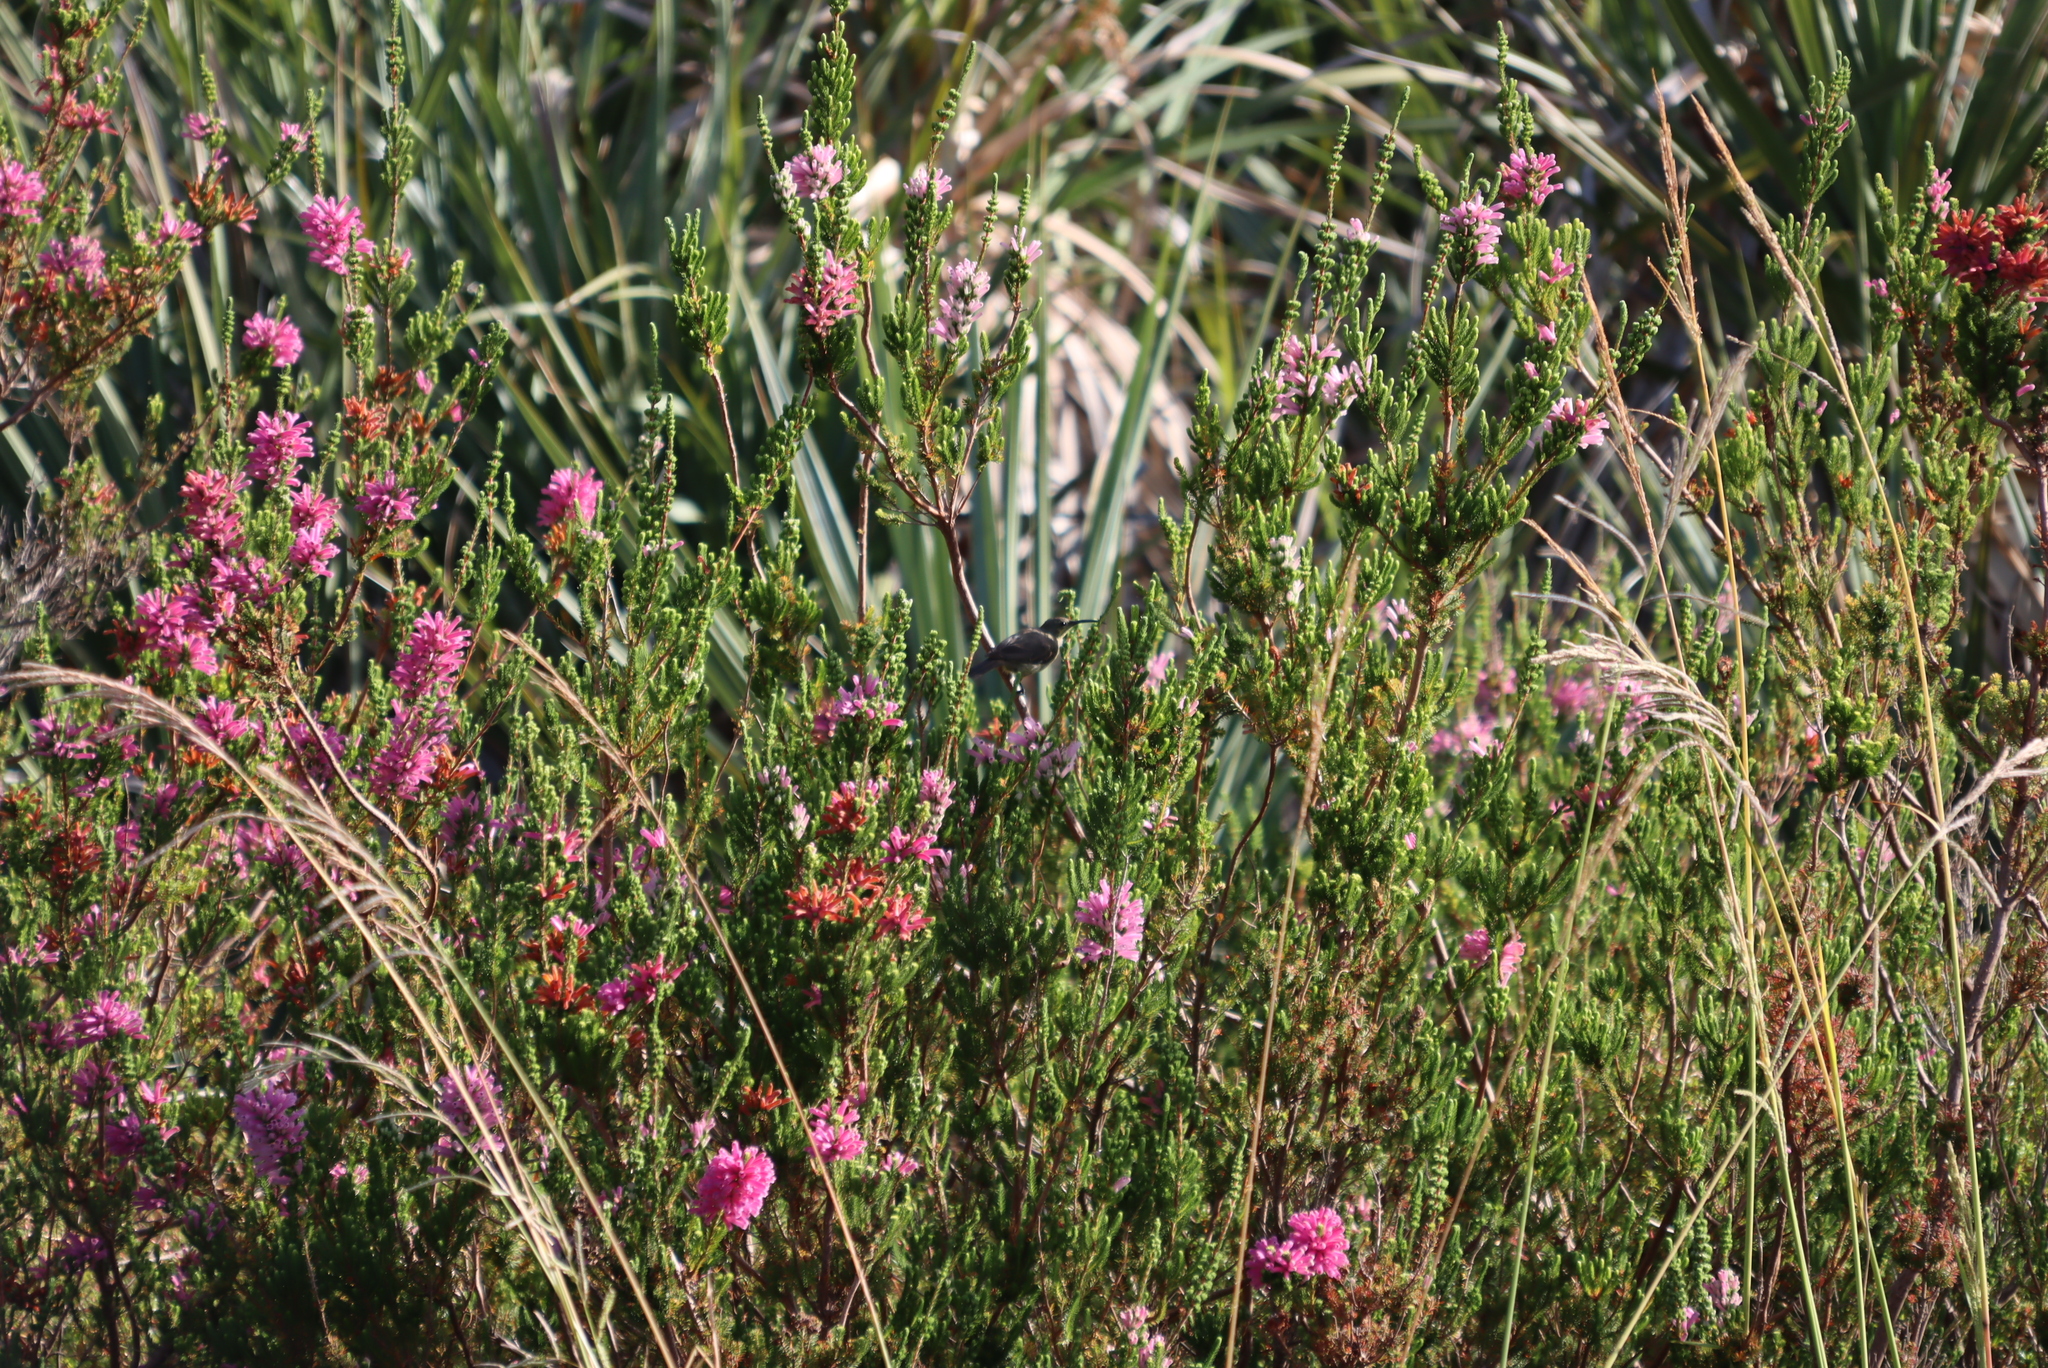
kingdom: Animalia
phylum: Chordata
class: Aves
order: Passeriformes
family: Nectariniidae
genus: Nectarinia
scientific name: Nectarinia famosa
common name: Malachite sunbird
